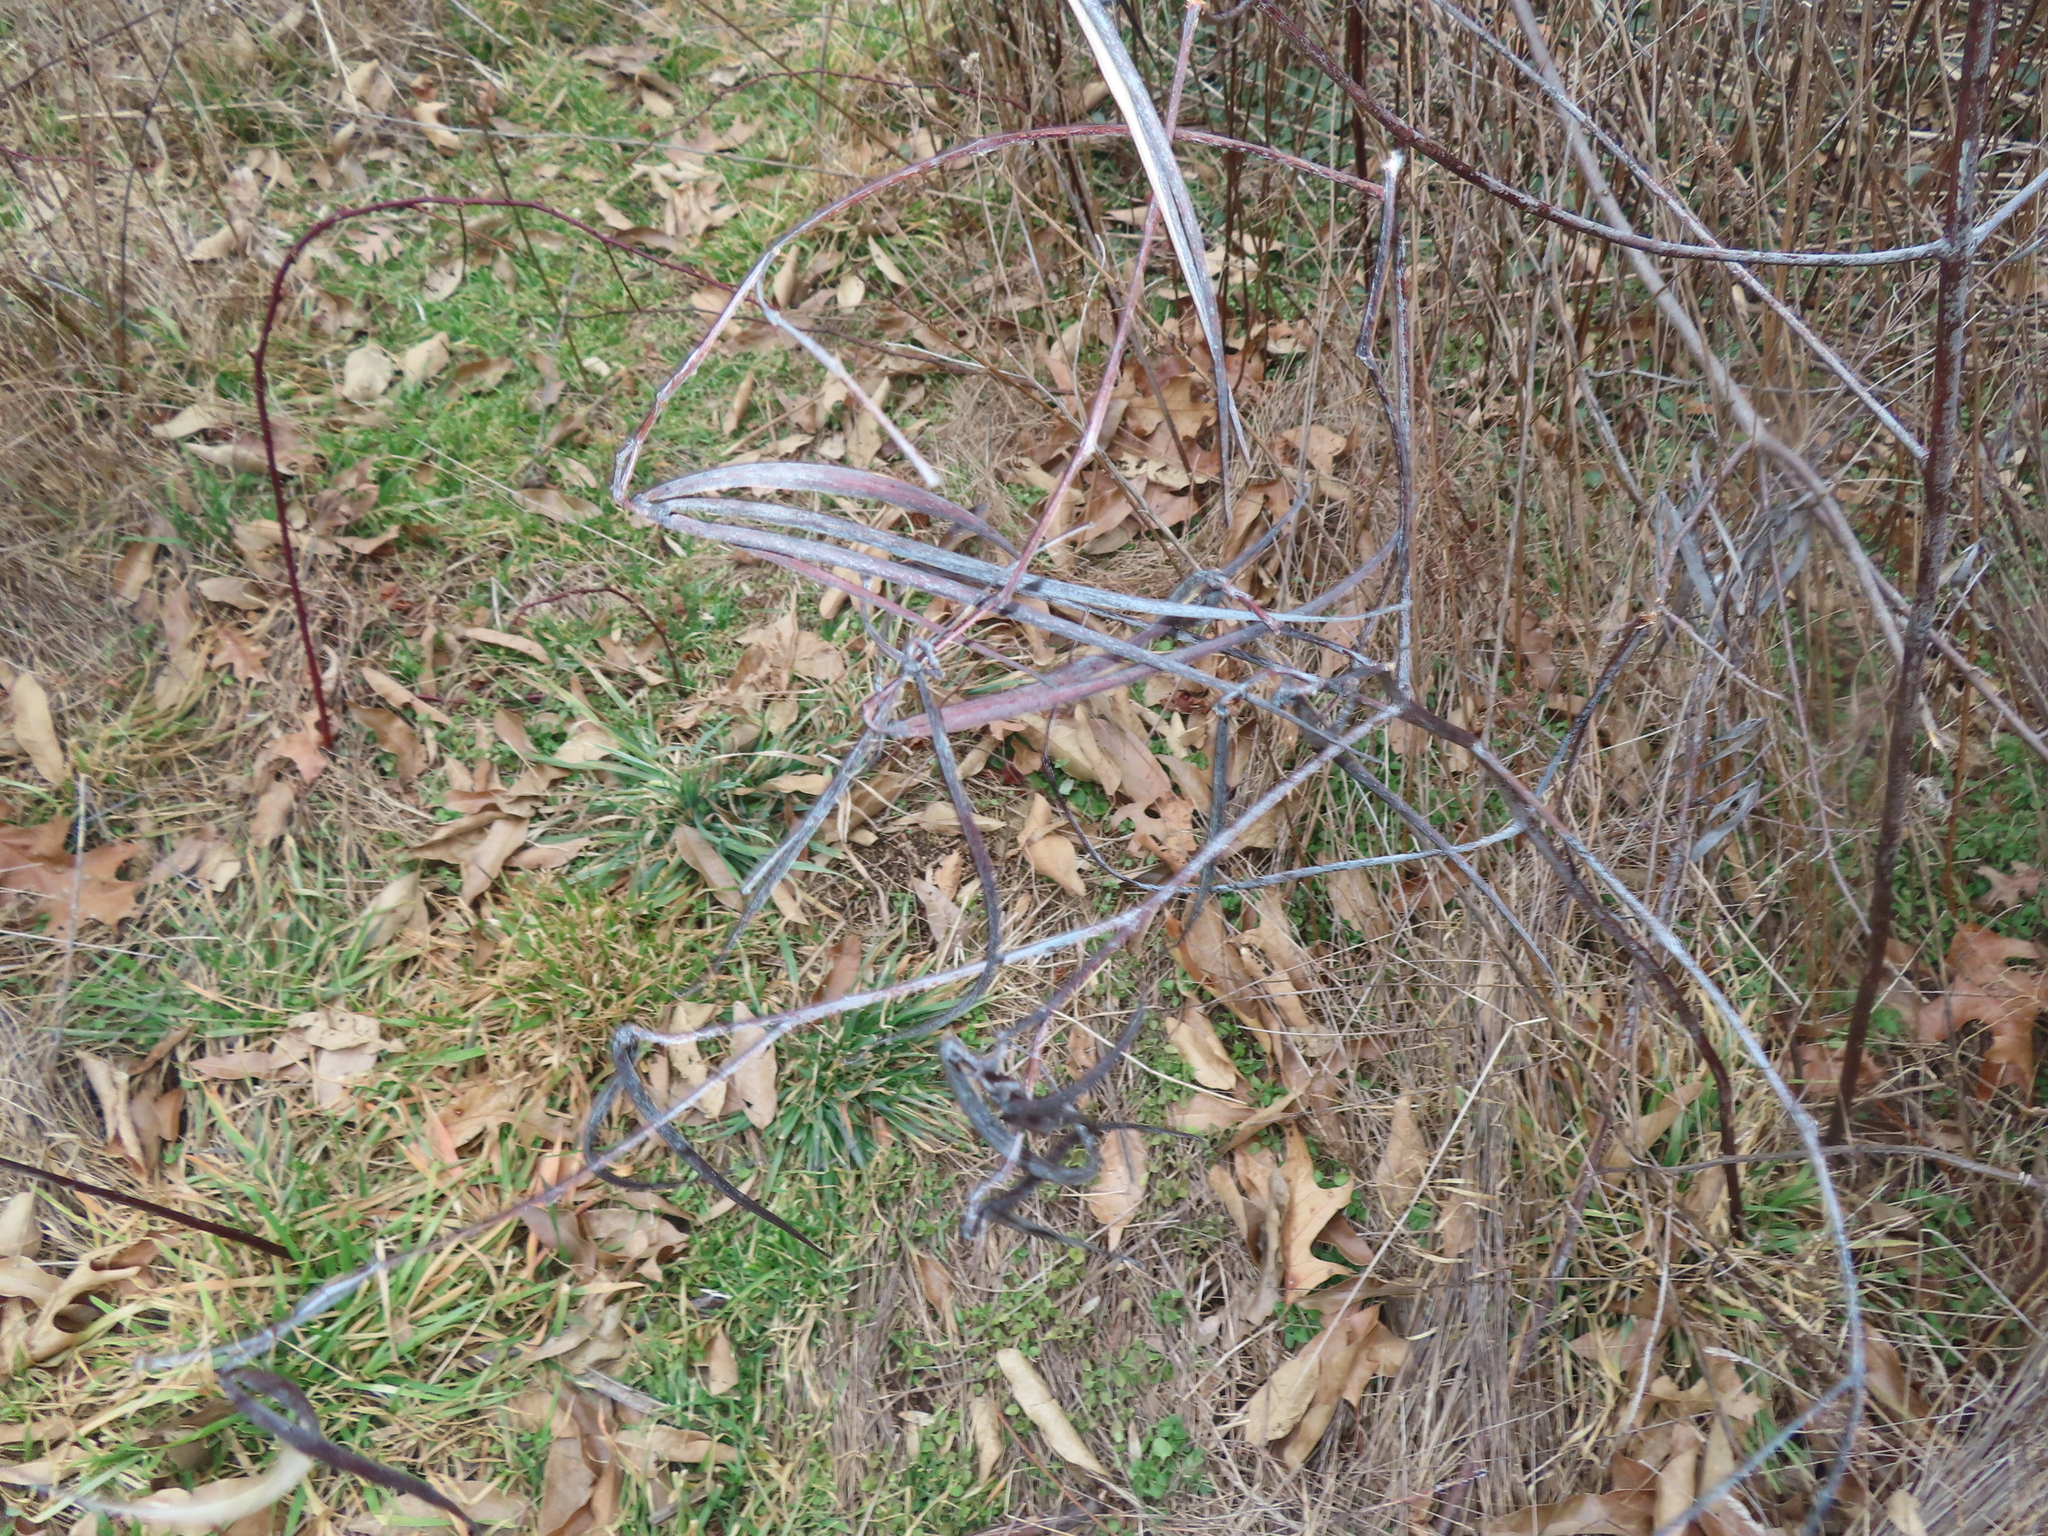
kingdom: Plantae
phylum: Tracheophyta
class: Magnoliopsida
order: Gentianales
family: Apocynaceae
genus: Apocynum
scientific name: Apocynum cannabinum
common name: Hemp dogbane
